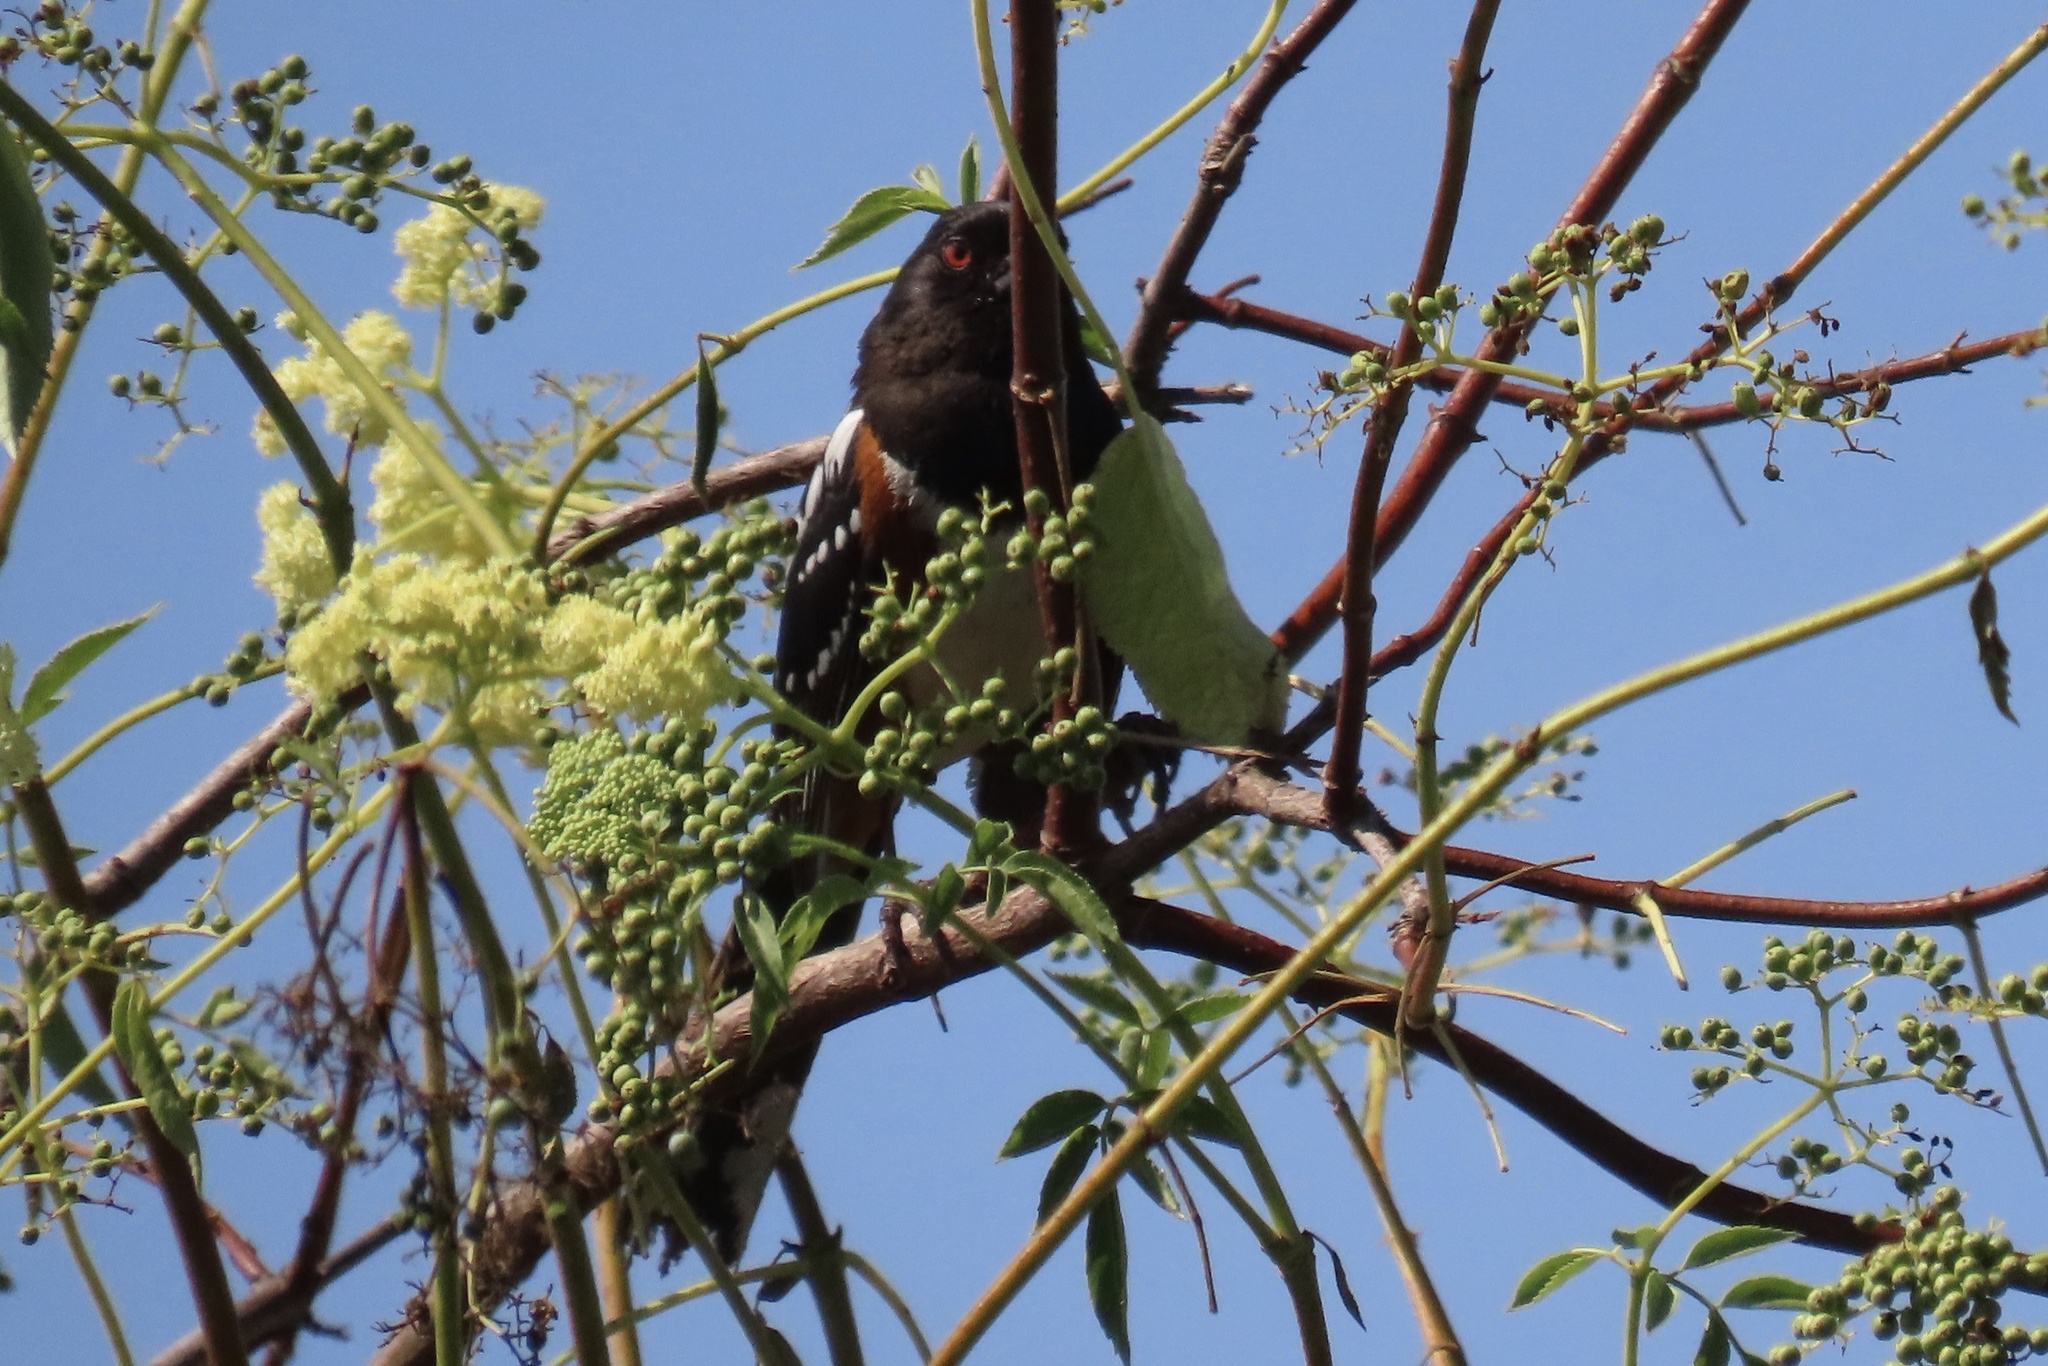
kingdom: Animalia
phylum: Chordata
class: Aves
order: Passeriformes
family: Passerellidae
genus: Pipilo
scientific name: Pipilo maculatus
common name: Spotted towhee
